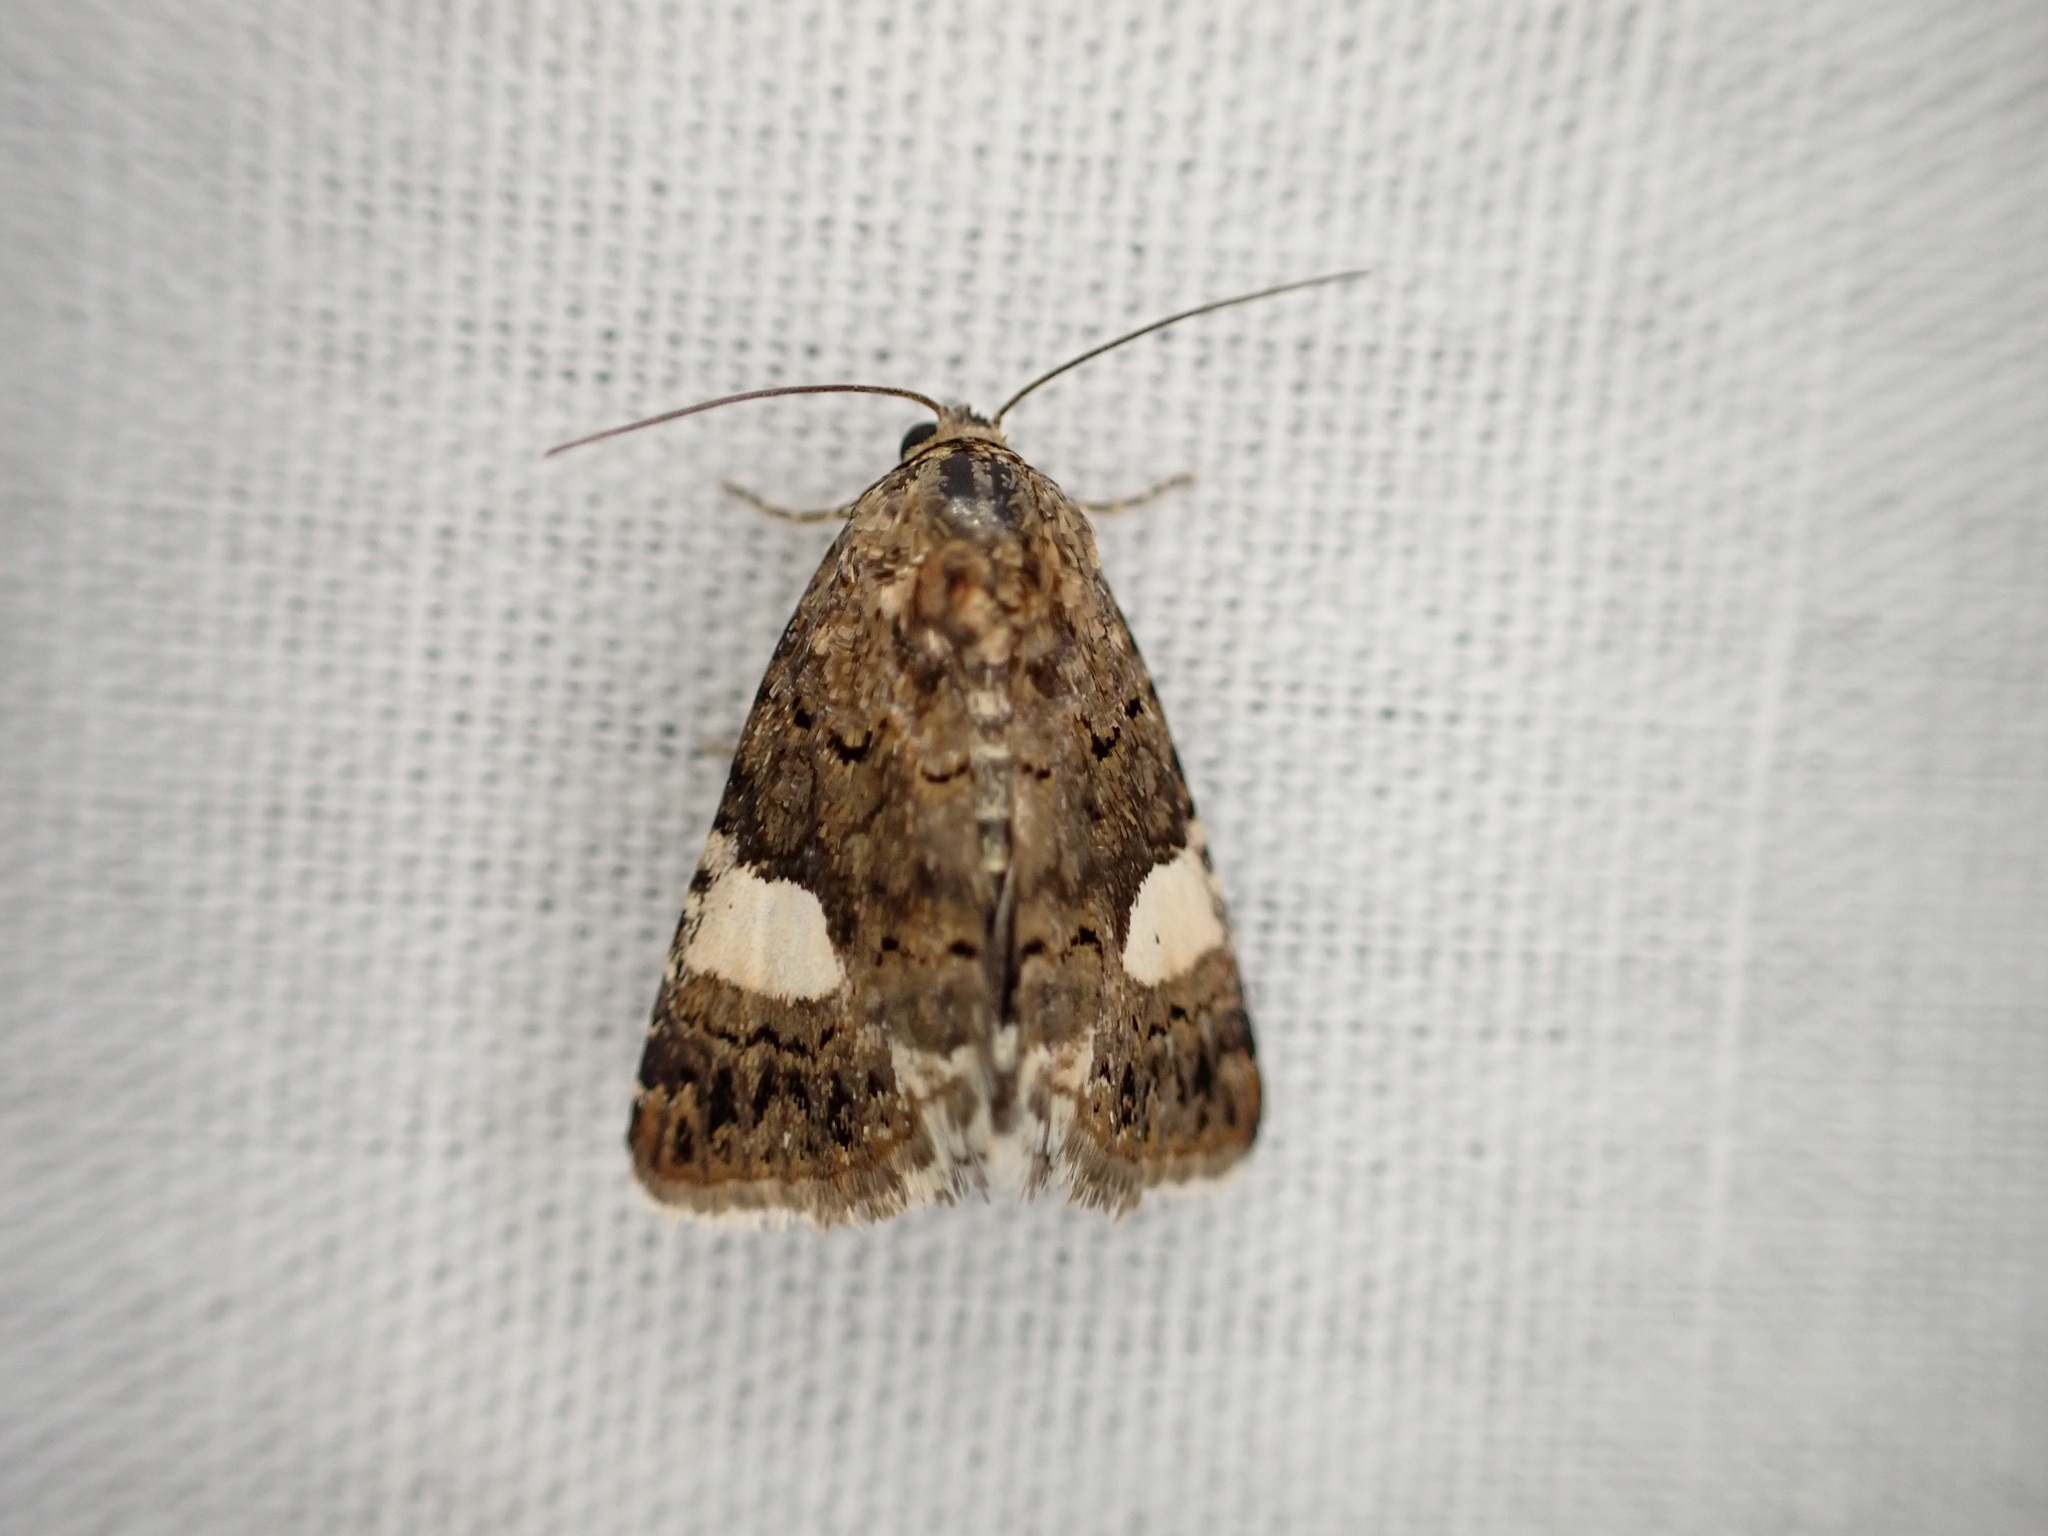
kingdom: Animalia
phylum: Arthropoda
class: Insecta
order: Lepidoptera
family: Erebidae
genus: Tyta
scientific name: Tyta luctuosa
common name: Four-spotted
